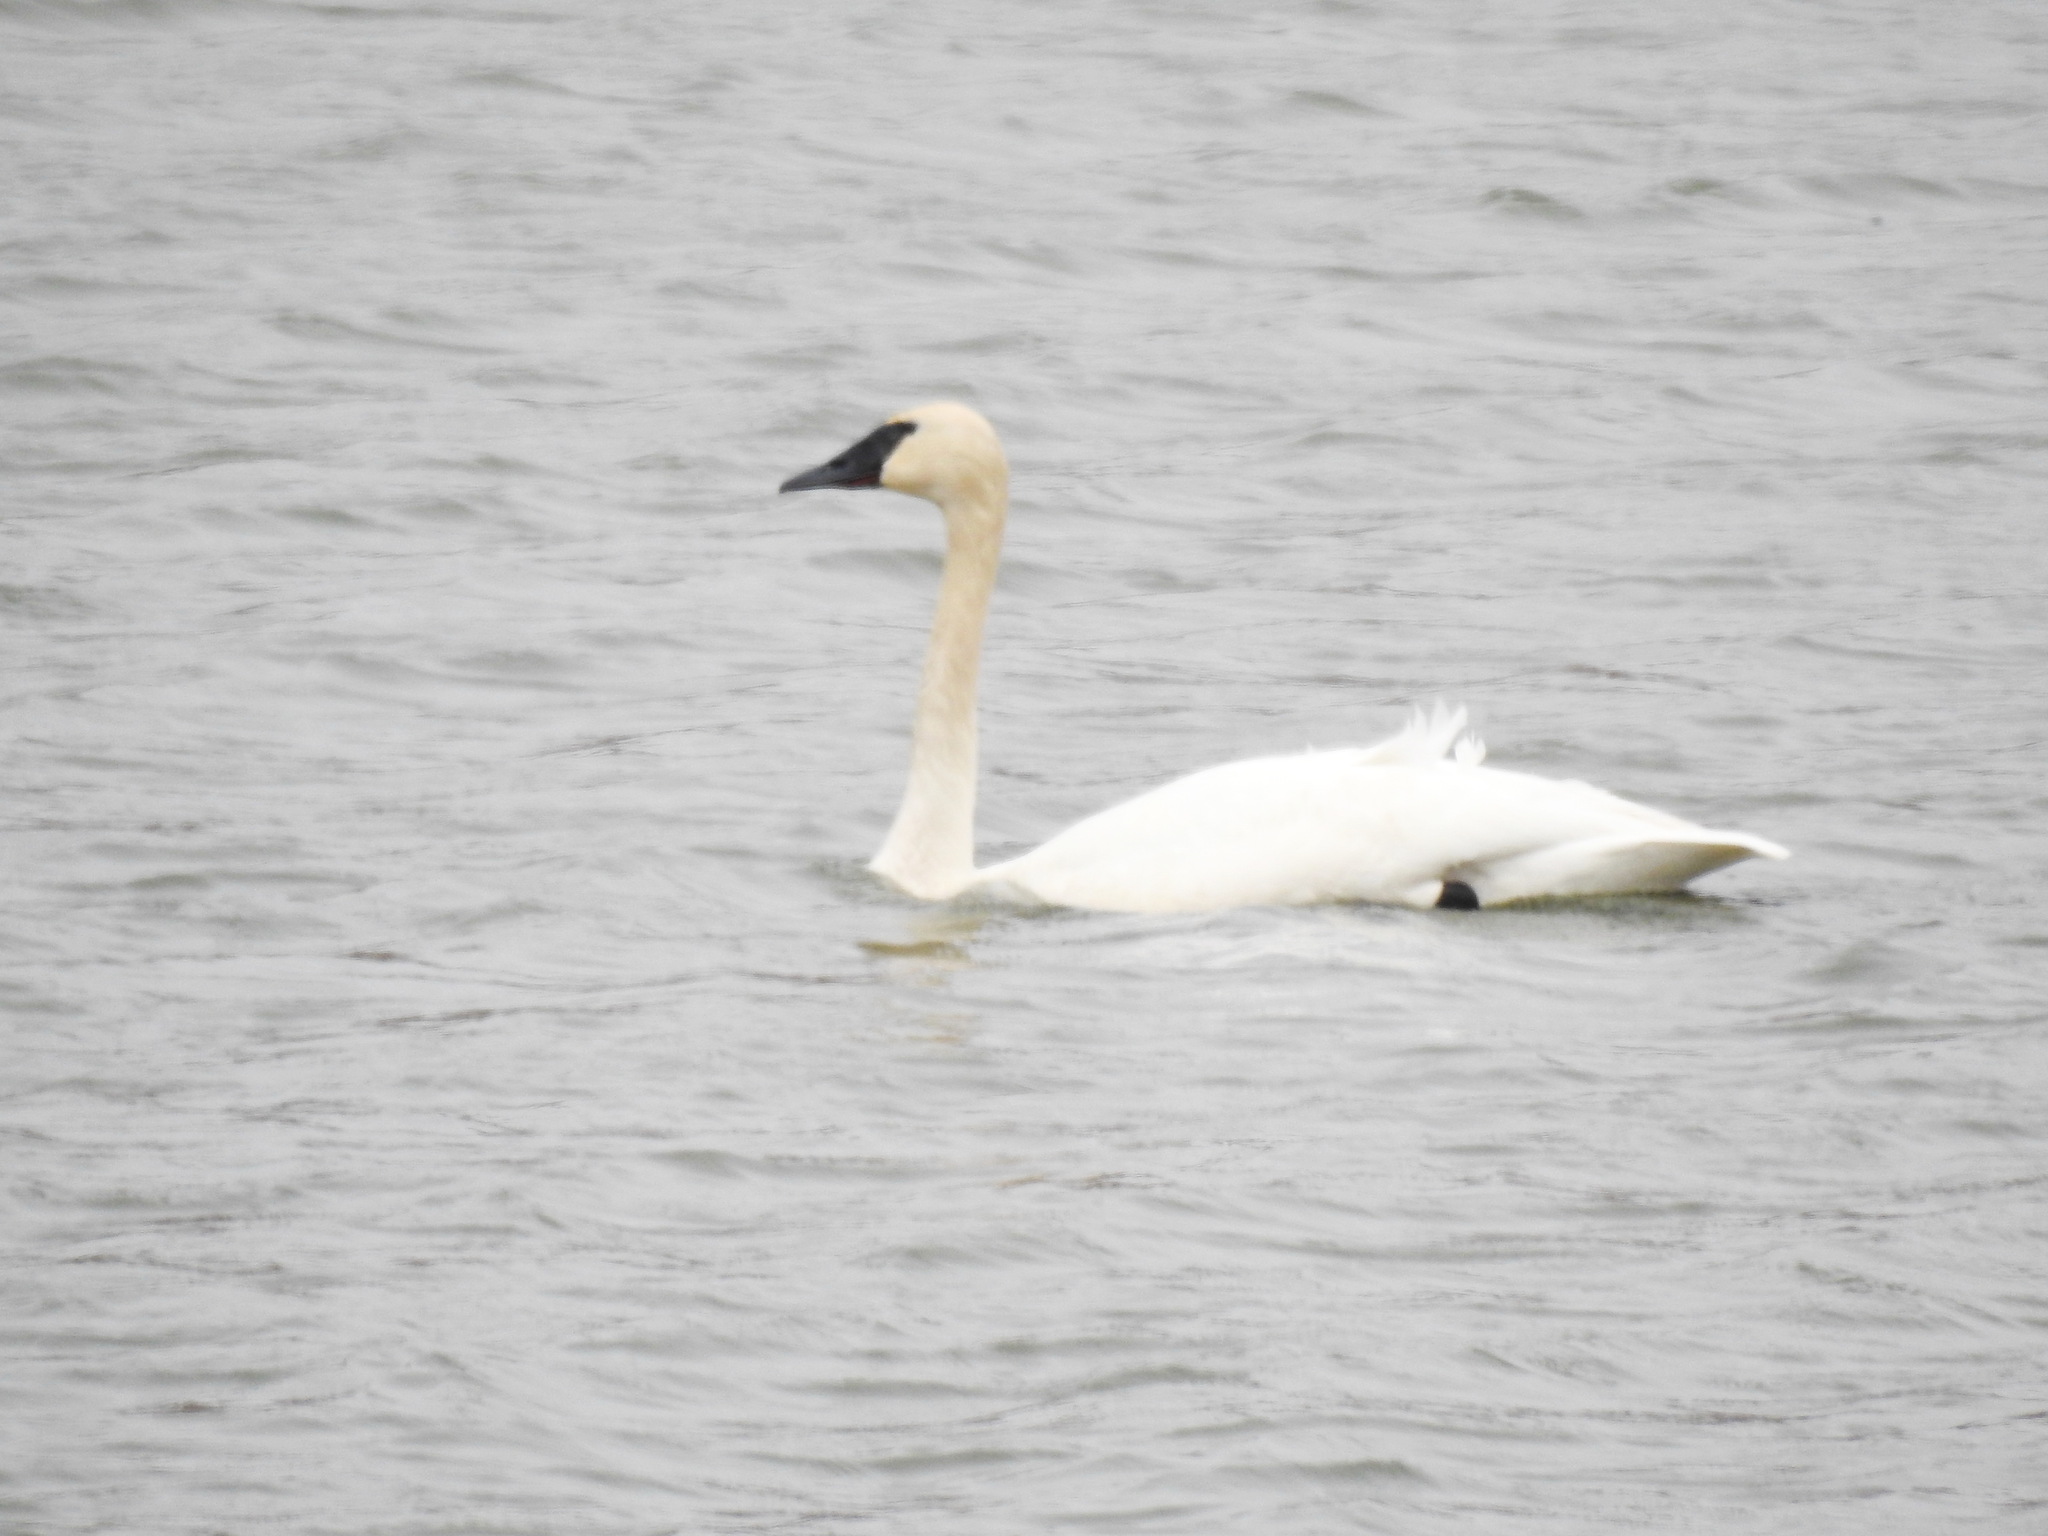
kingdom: Animalia
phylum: Chordata
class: Aves
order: Anseriformes
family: Anatidae
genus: Cygnus
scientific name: Cygnus buccinator
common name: Trumpeter swan
